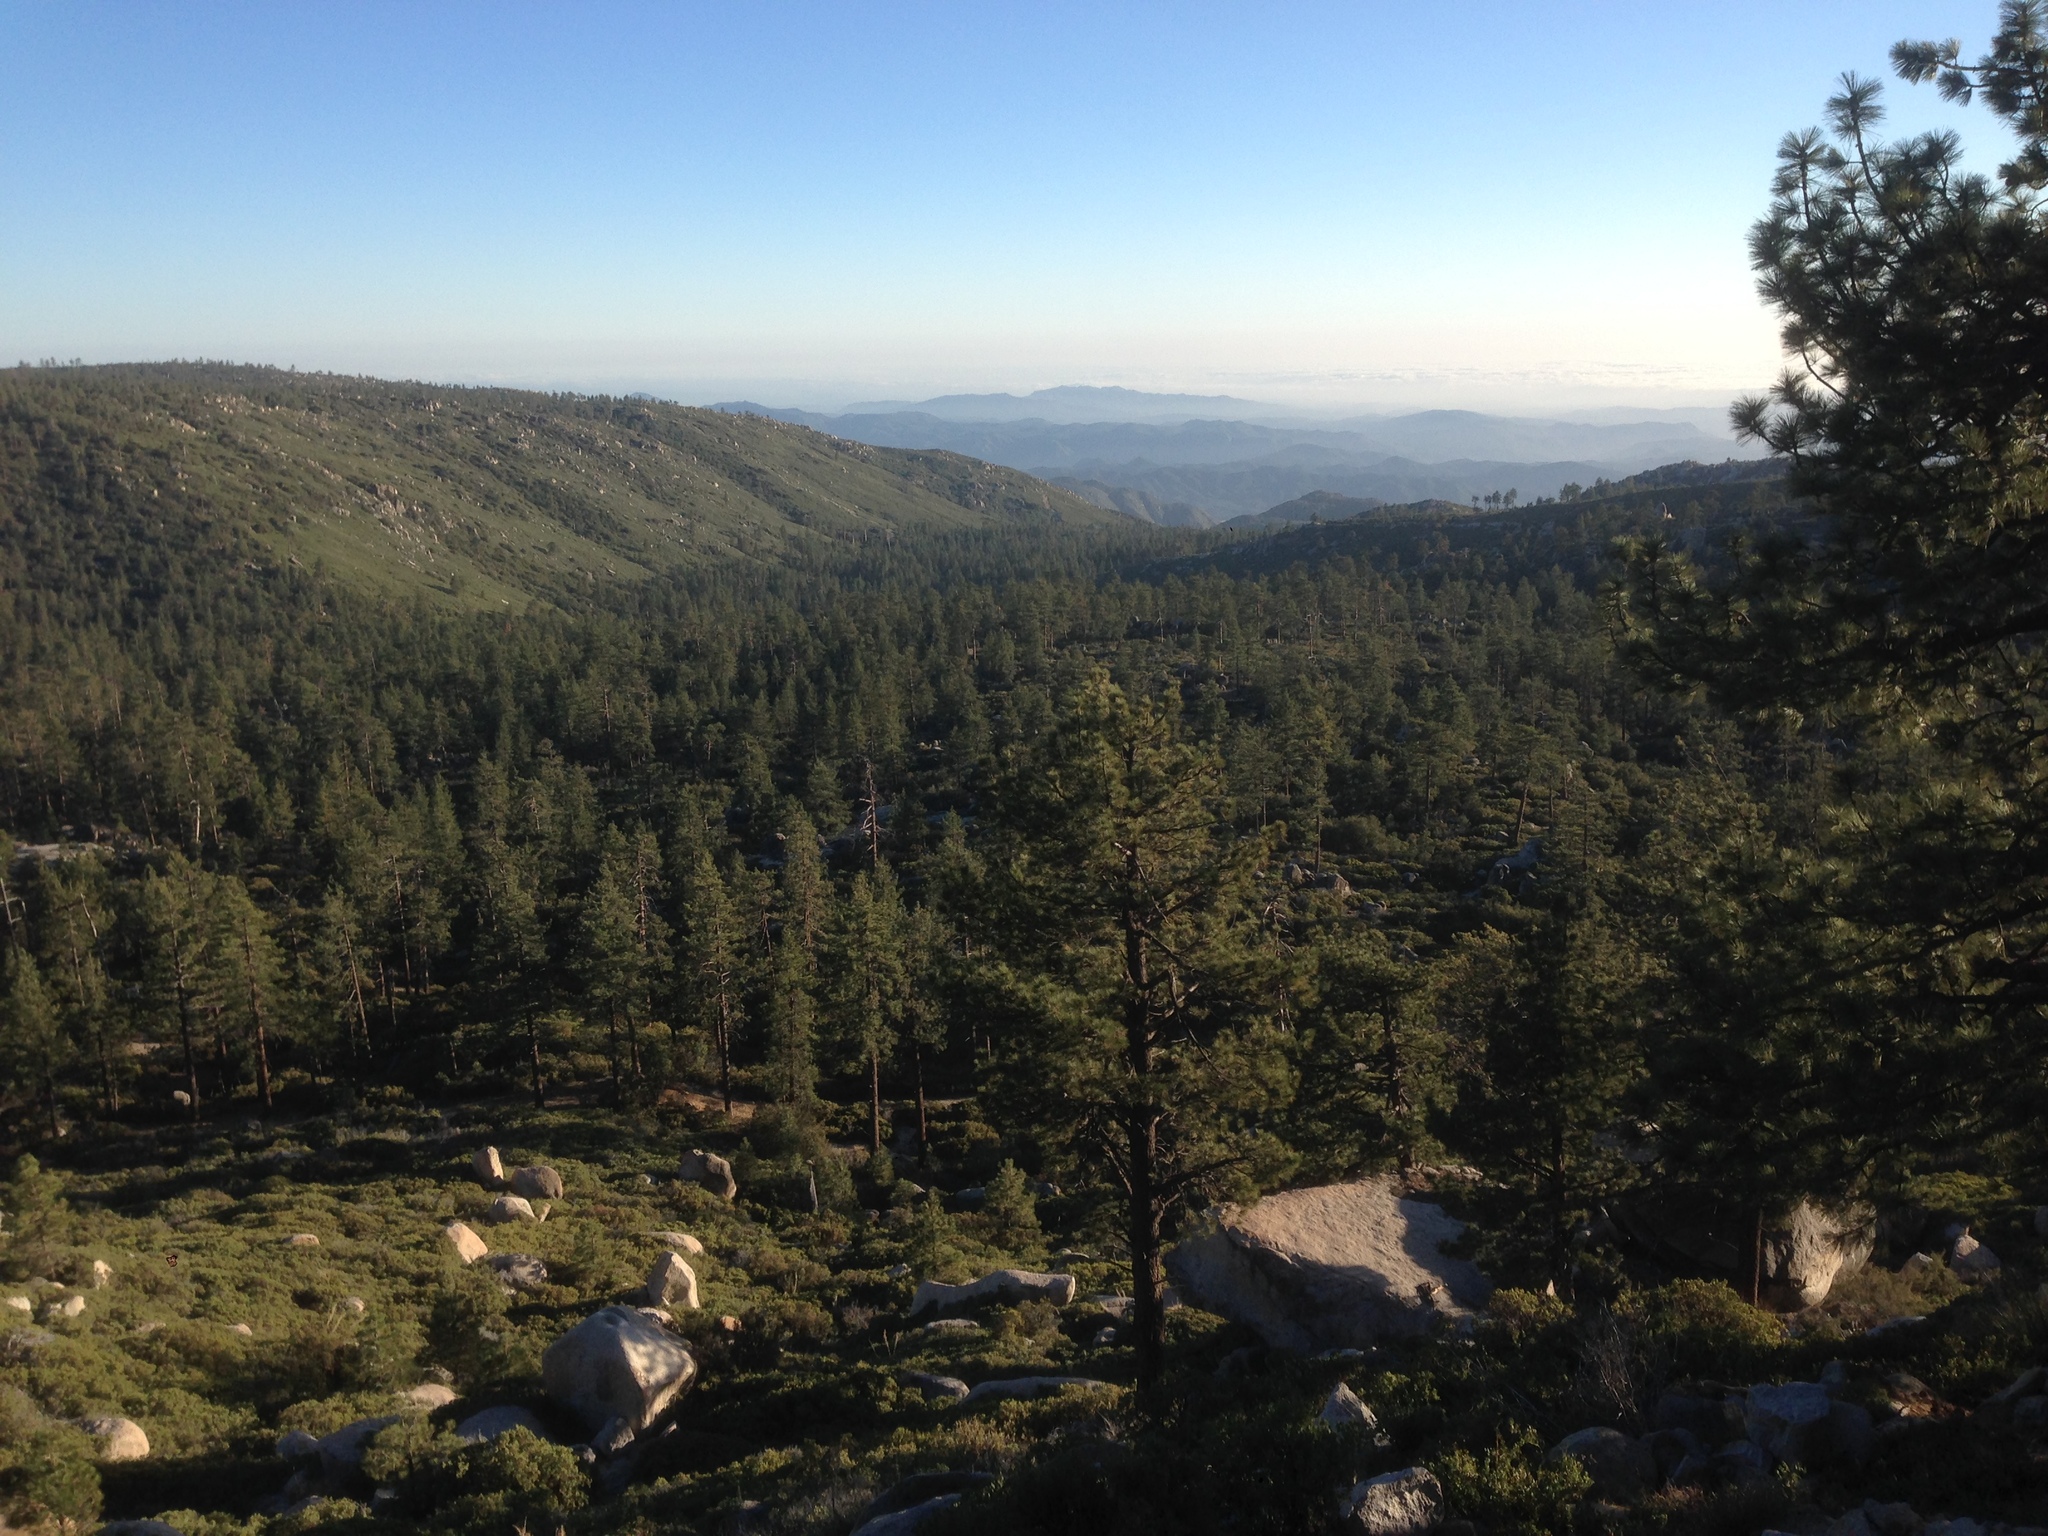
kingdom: Plantae
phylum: Tracheophyta
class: Pinopsida
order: Pinales
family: Pinaceae
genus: Pinus
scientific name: Pinus jeffreyi
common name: Jeffrey pine
